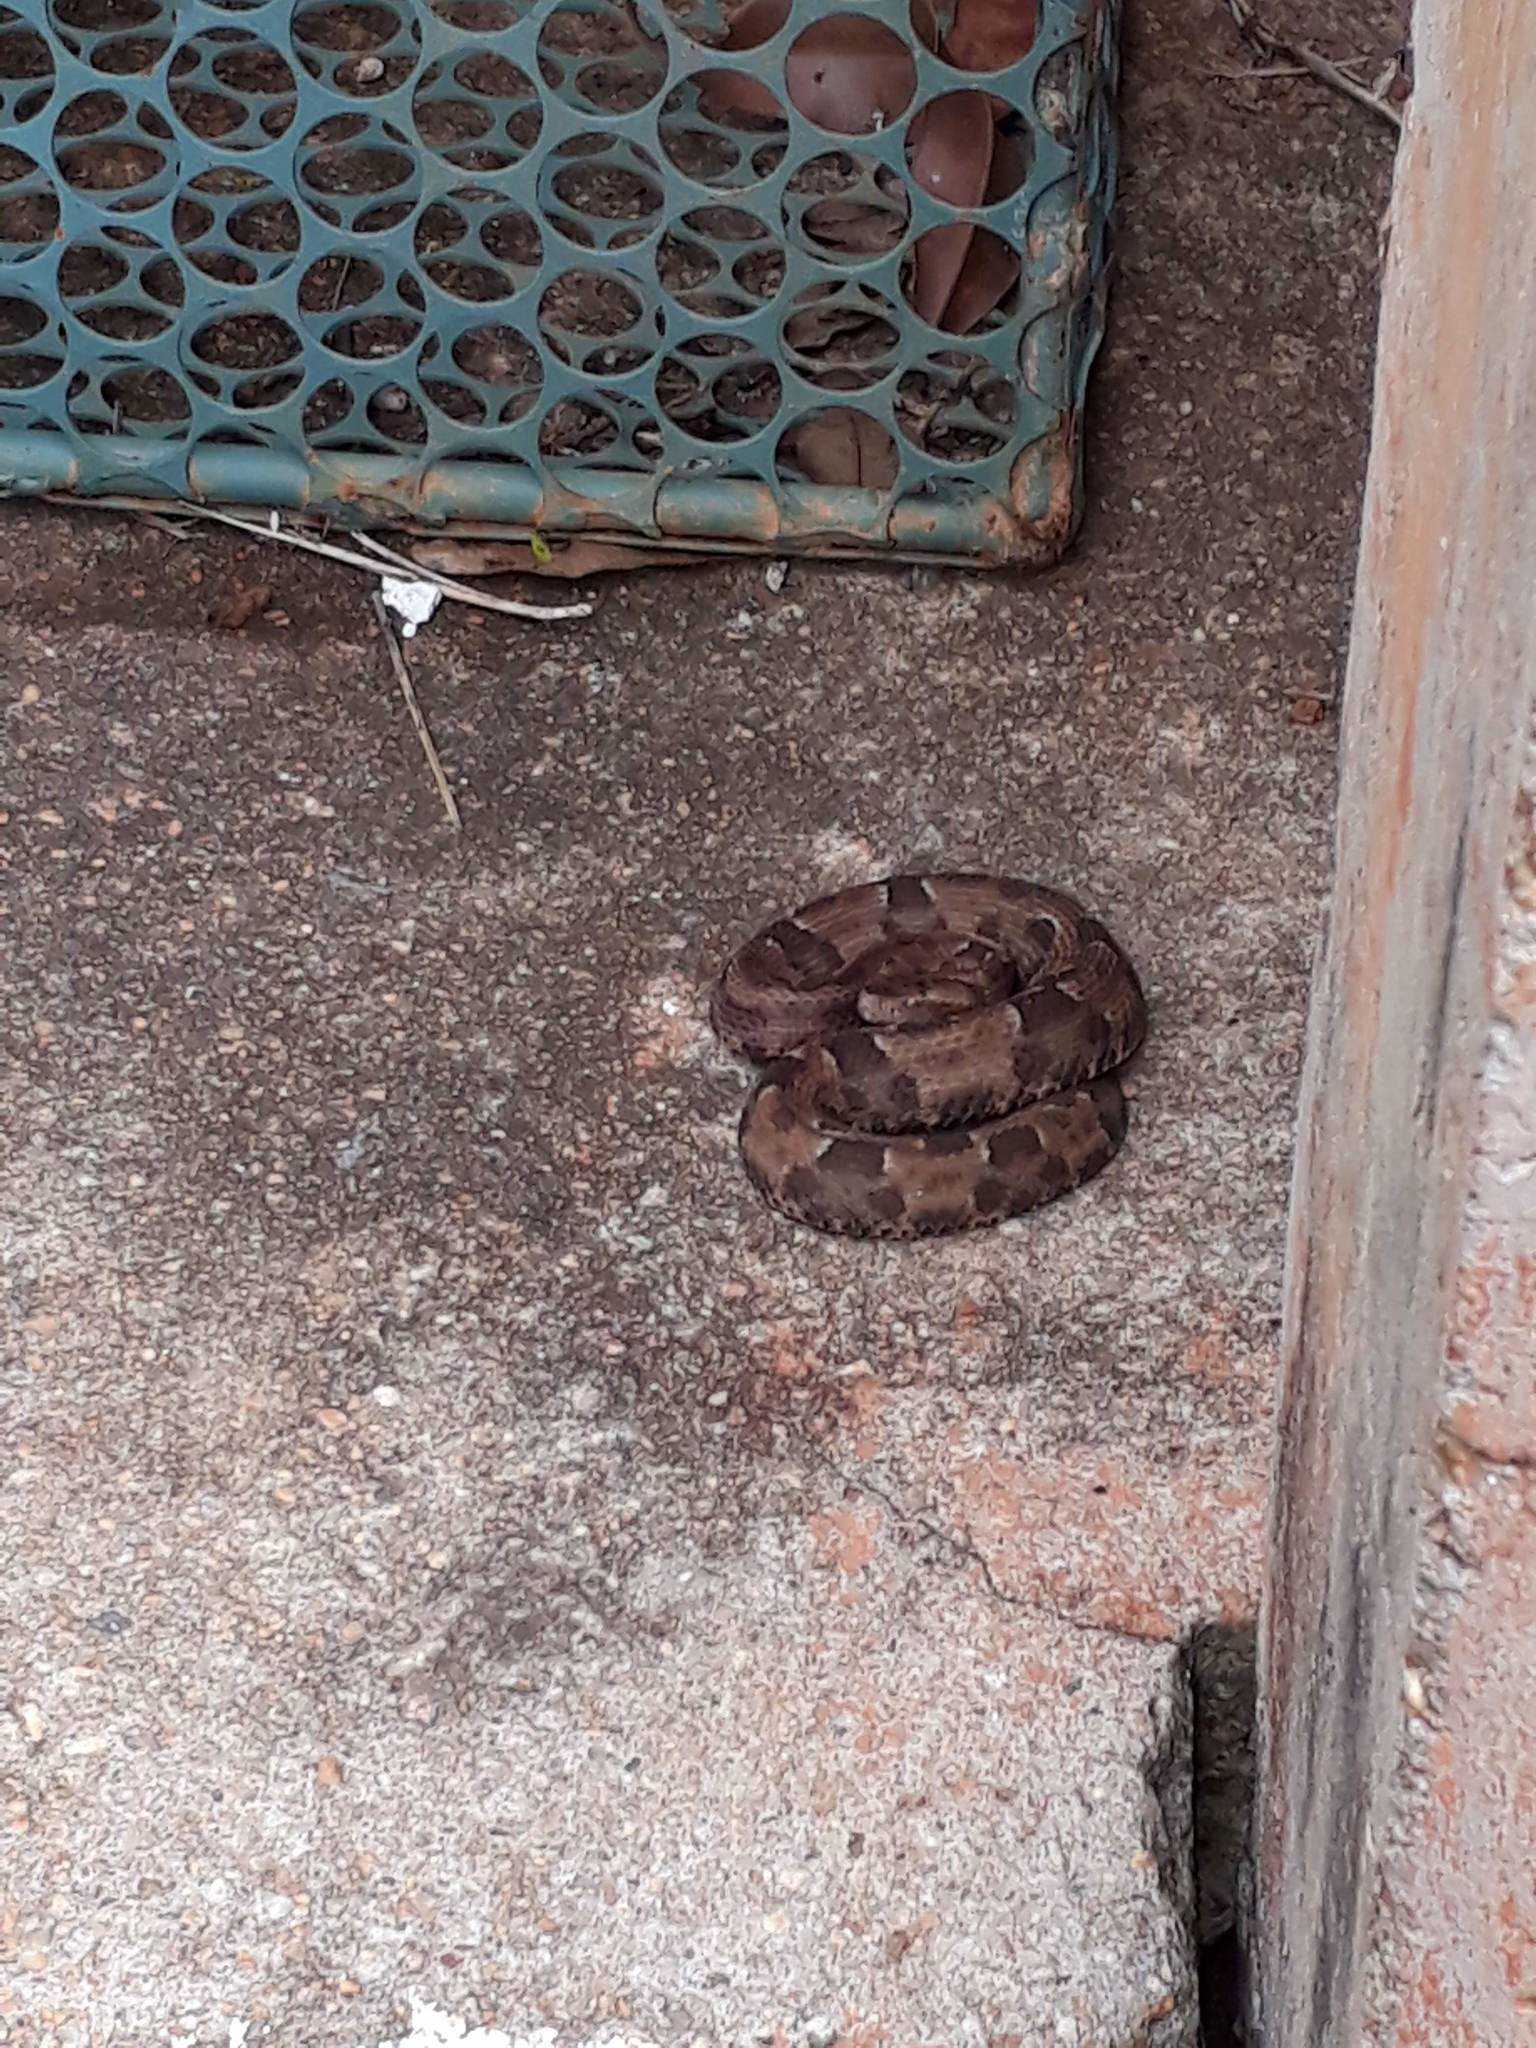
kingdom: Animalia
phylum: Chordata
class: Squamata
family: Viperidae
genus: Bothrops
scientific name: Bothrops marmoratus
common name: Marbled lancehead
